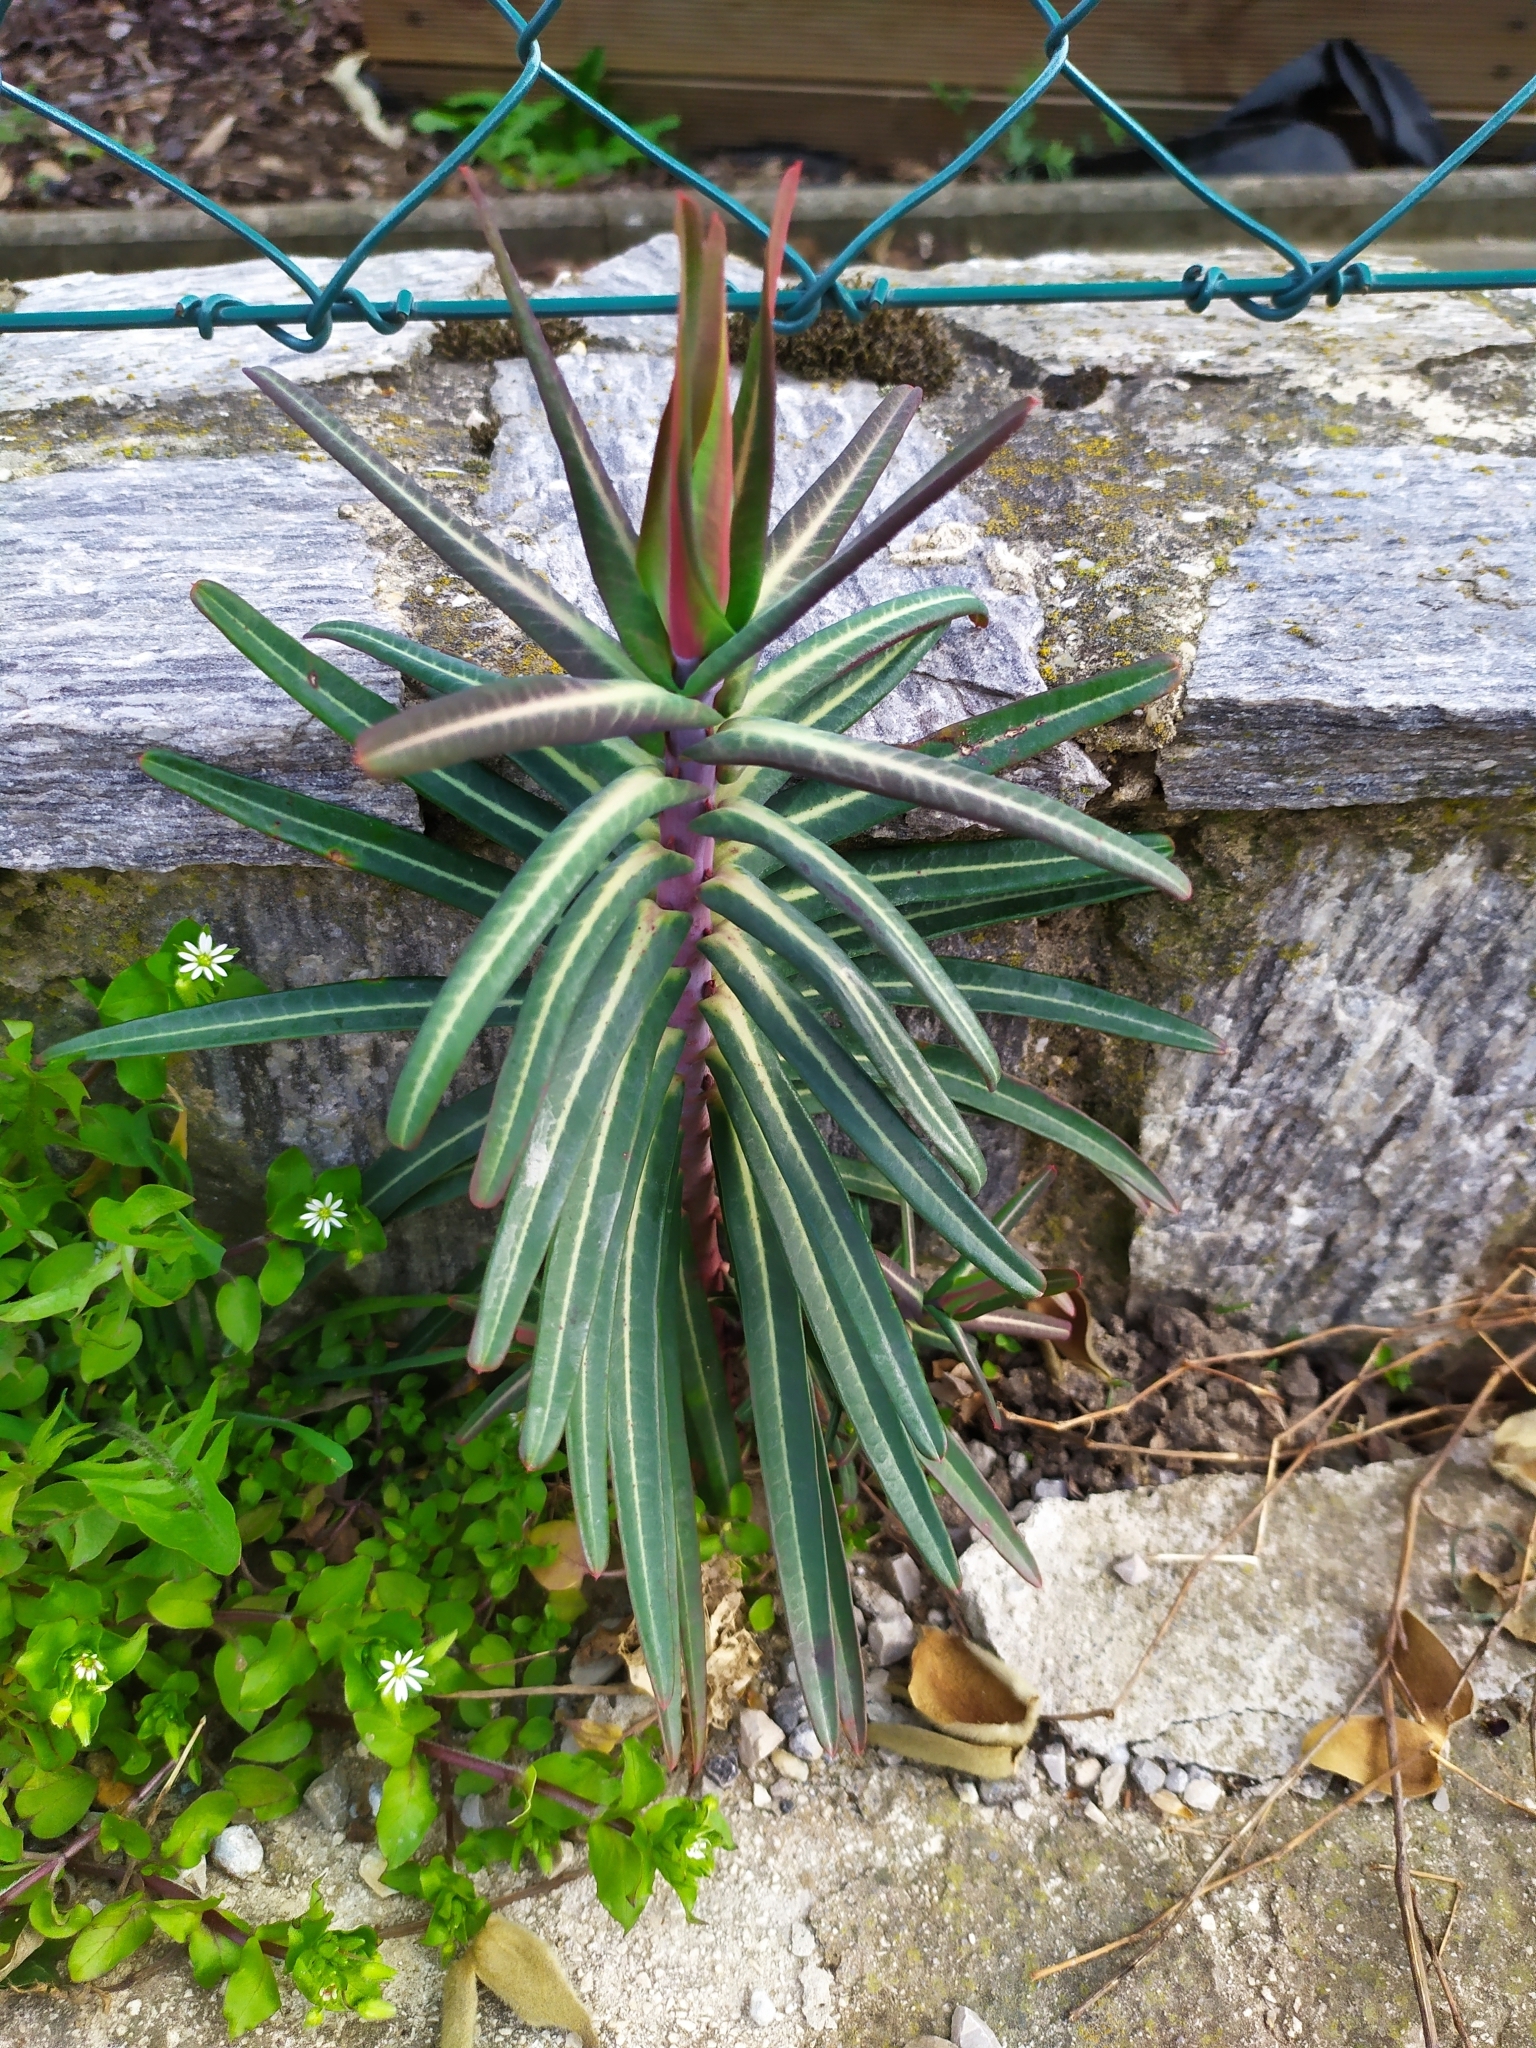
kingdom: Plantae
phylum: Tracheophyta
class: Magnoliopsida
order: Malpighiales
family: Euphorbiaceae
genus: Euphorbia
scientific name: Euphorbia lathyris
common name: Caper spurge
